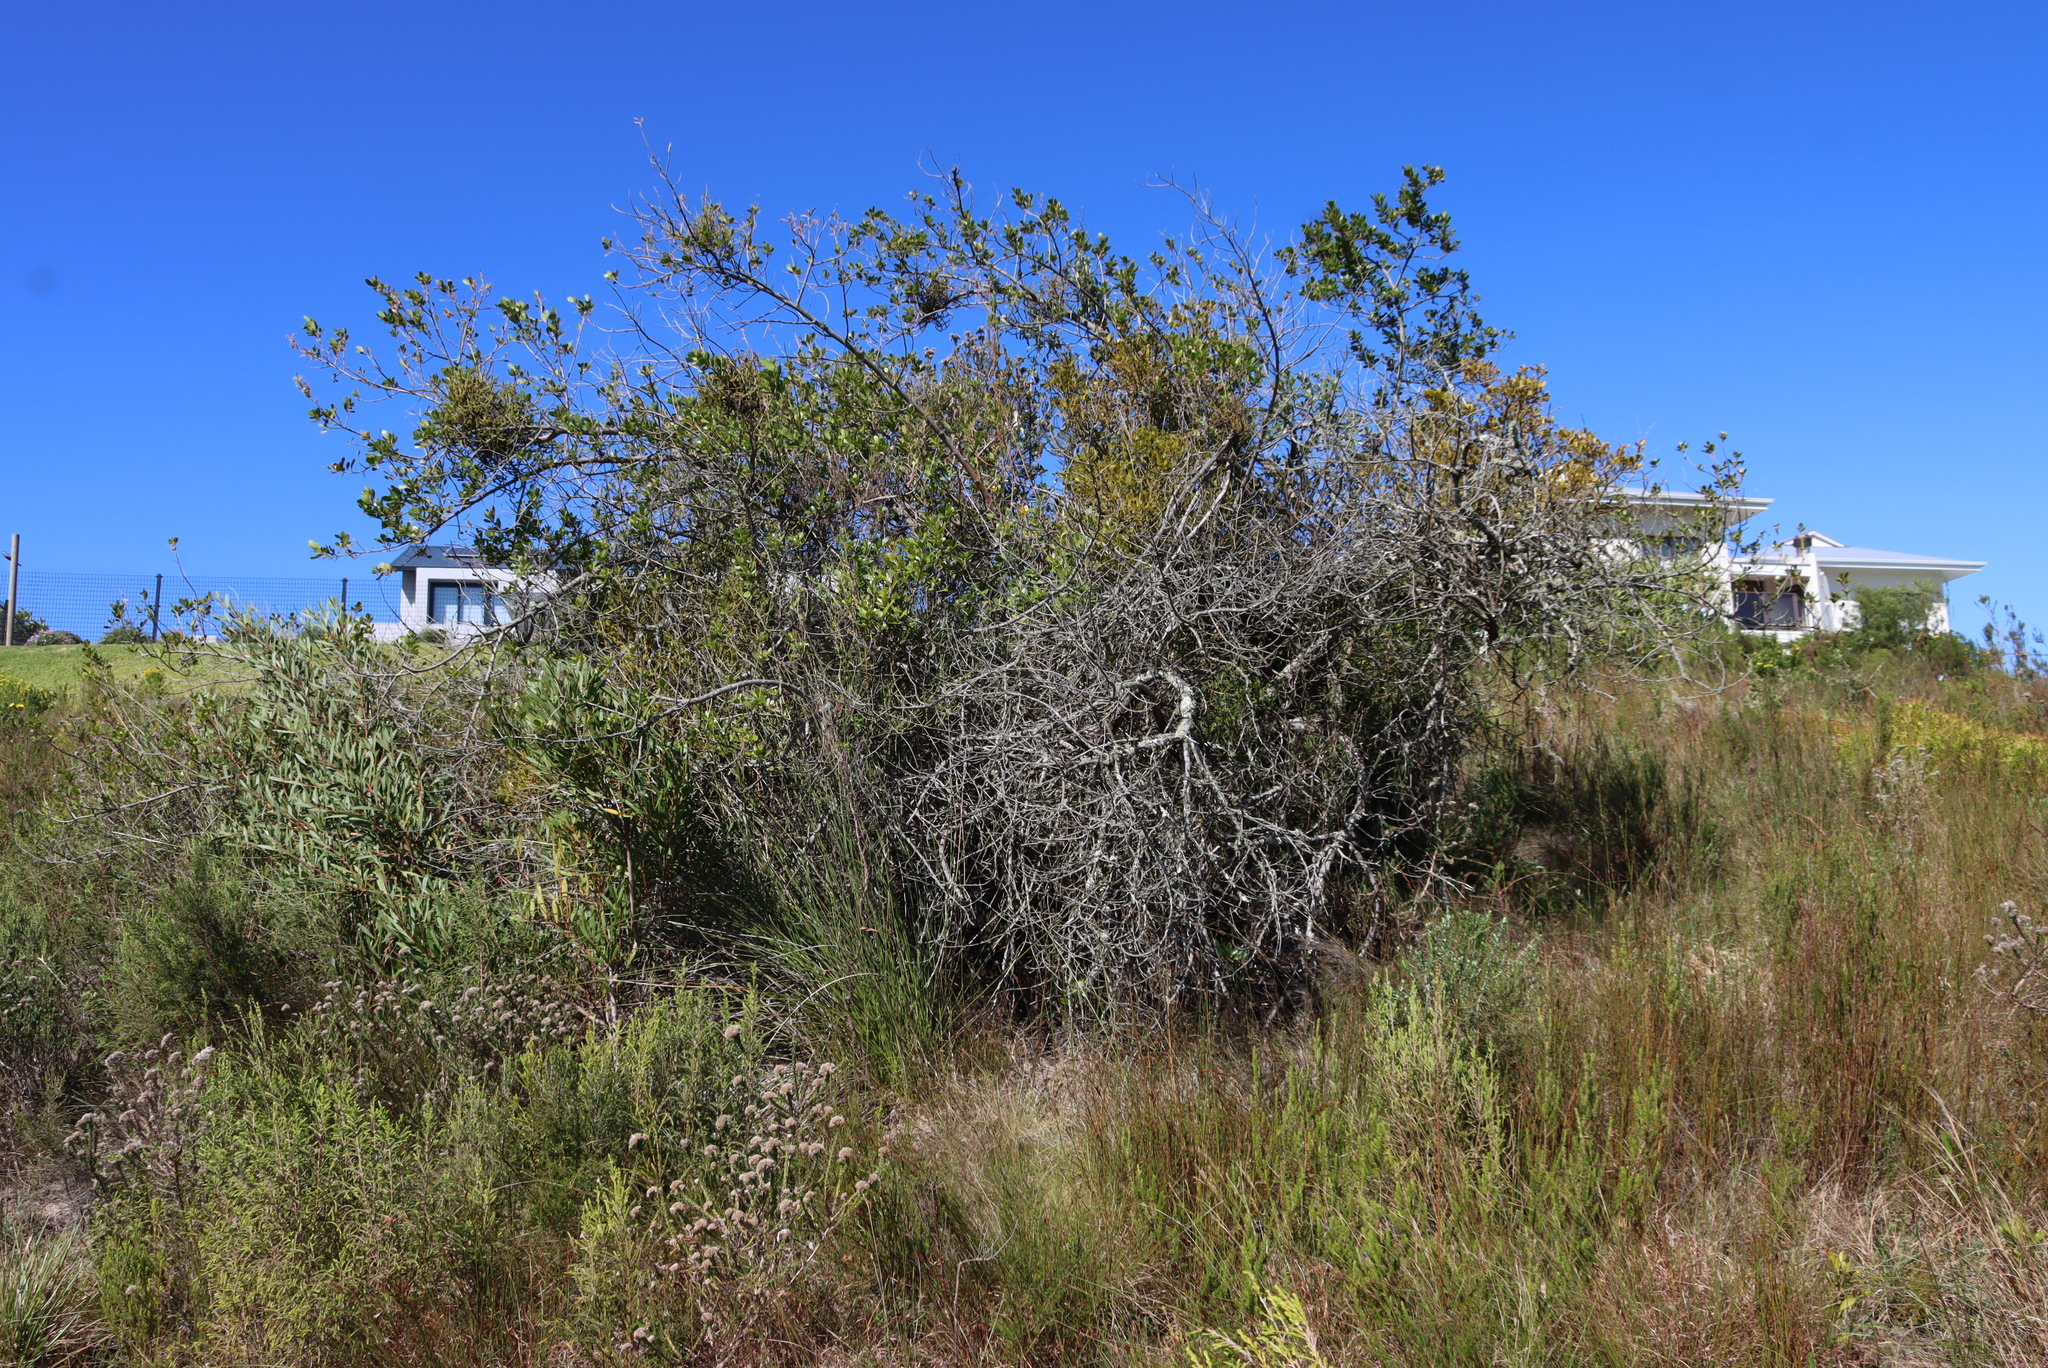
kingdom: Plantae
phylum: Tracheophyta
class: Magnoliopsida
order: Sapindales
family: Anacardiaceae
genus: Searsia
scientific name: Searsia lucida
